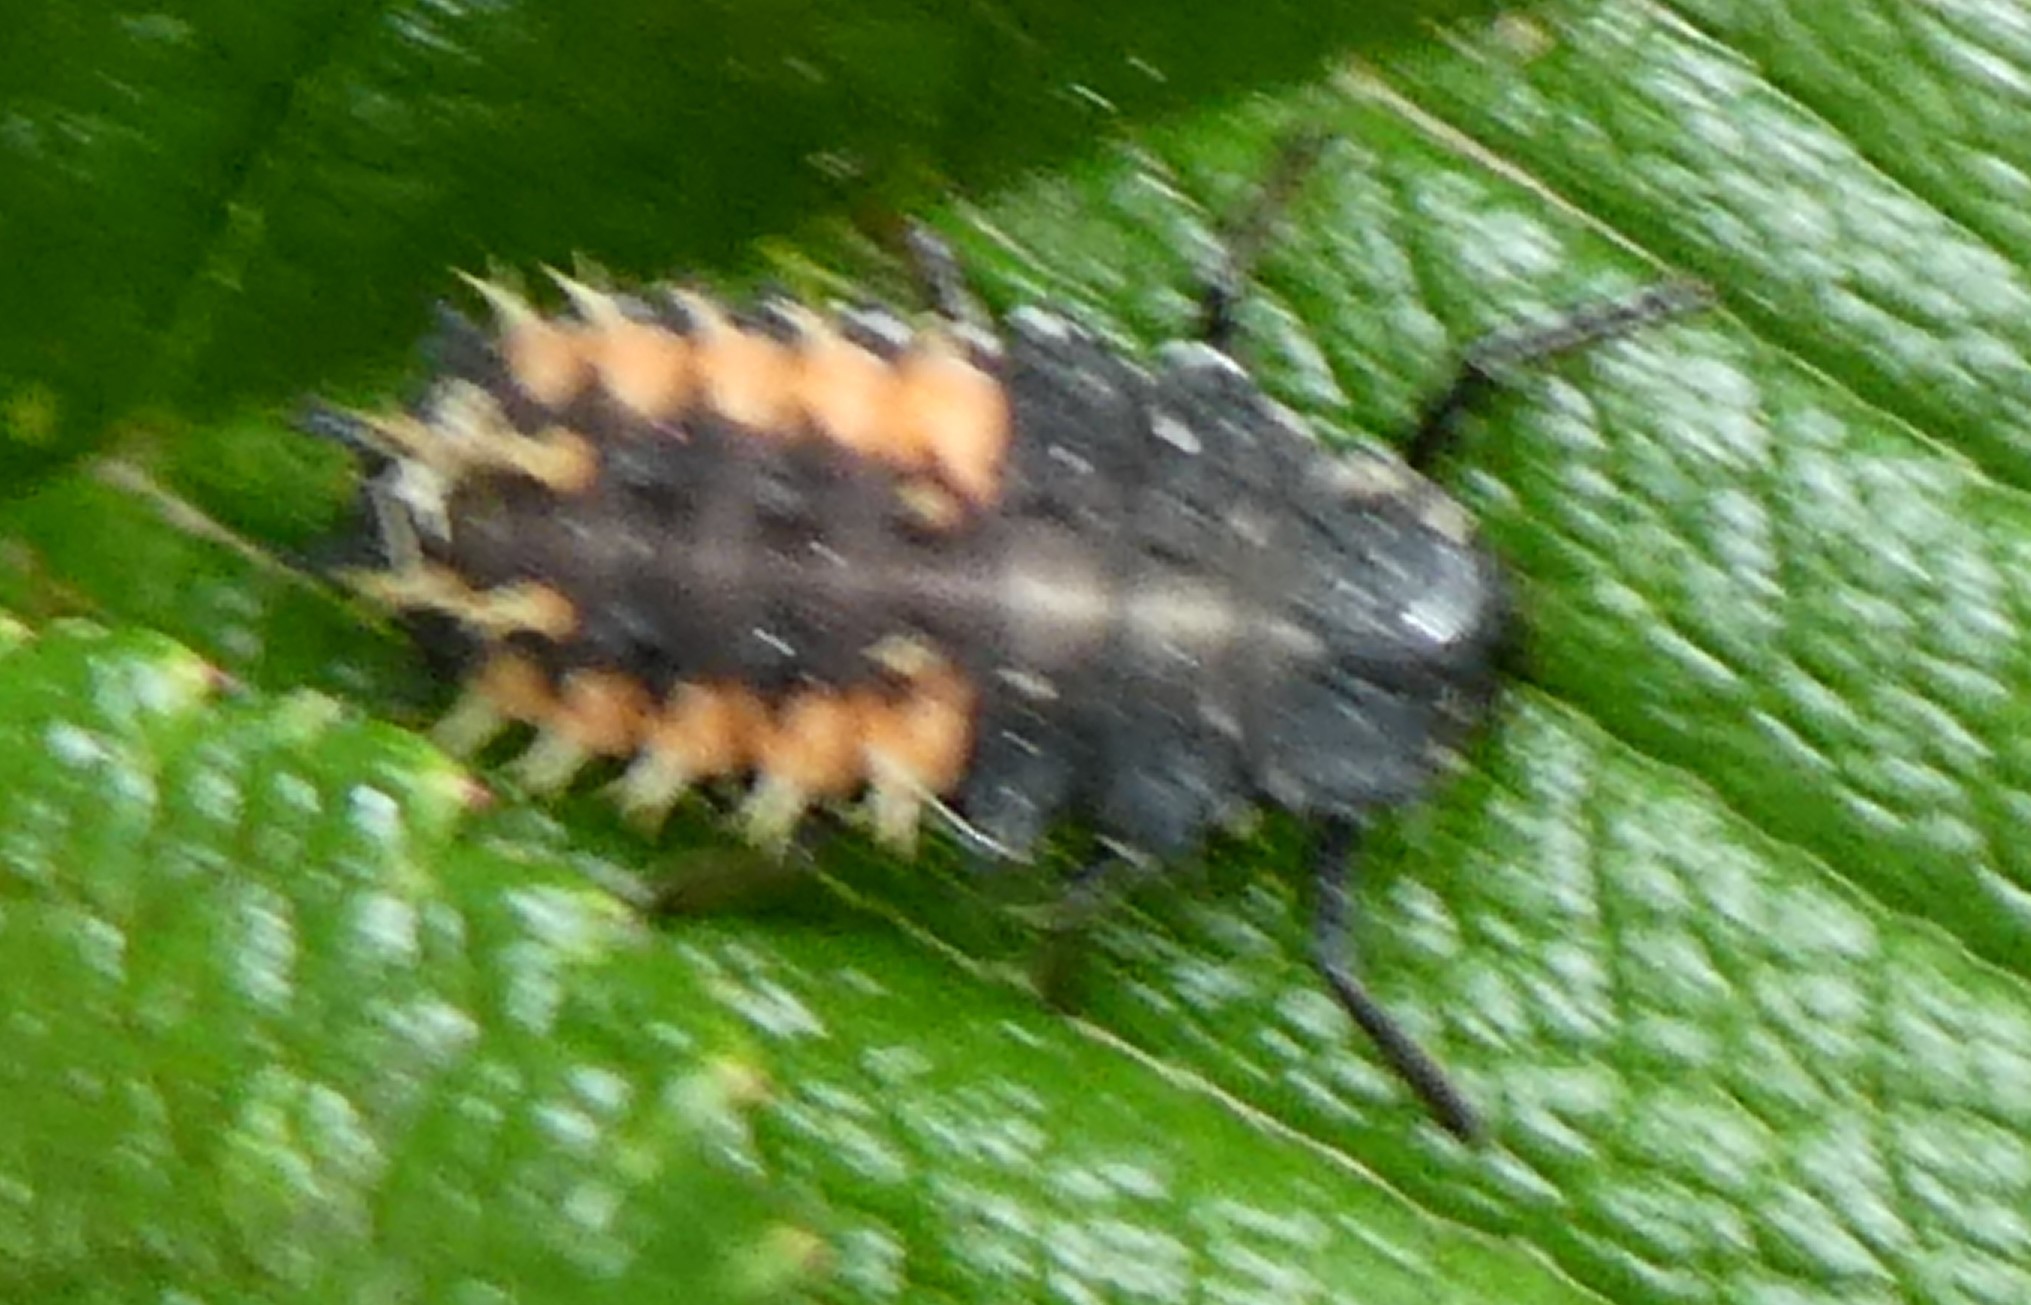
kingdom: Animalia
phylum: Arthropoda
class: Insecta
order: Coleoptera
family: Coccinellidae
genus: Harmonia
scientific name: Harmonia axyridis
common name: Harlequin ladybird
